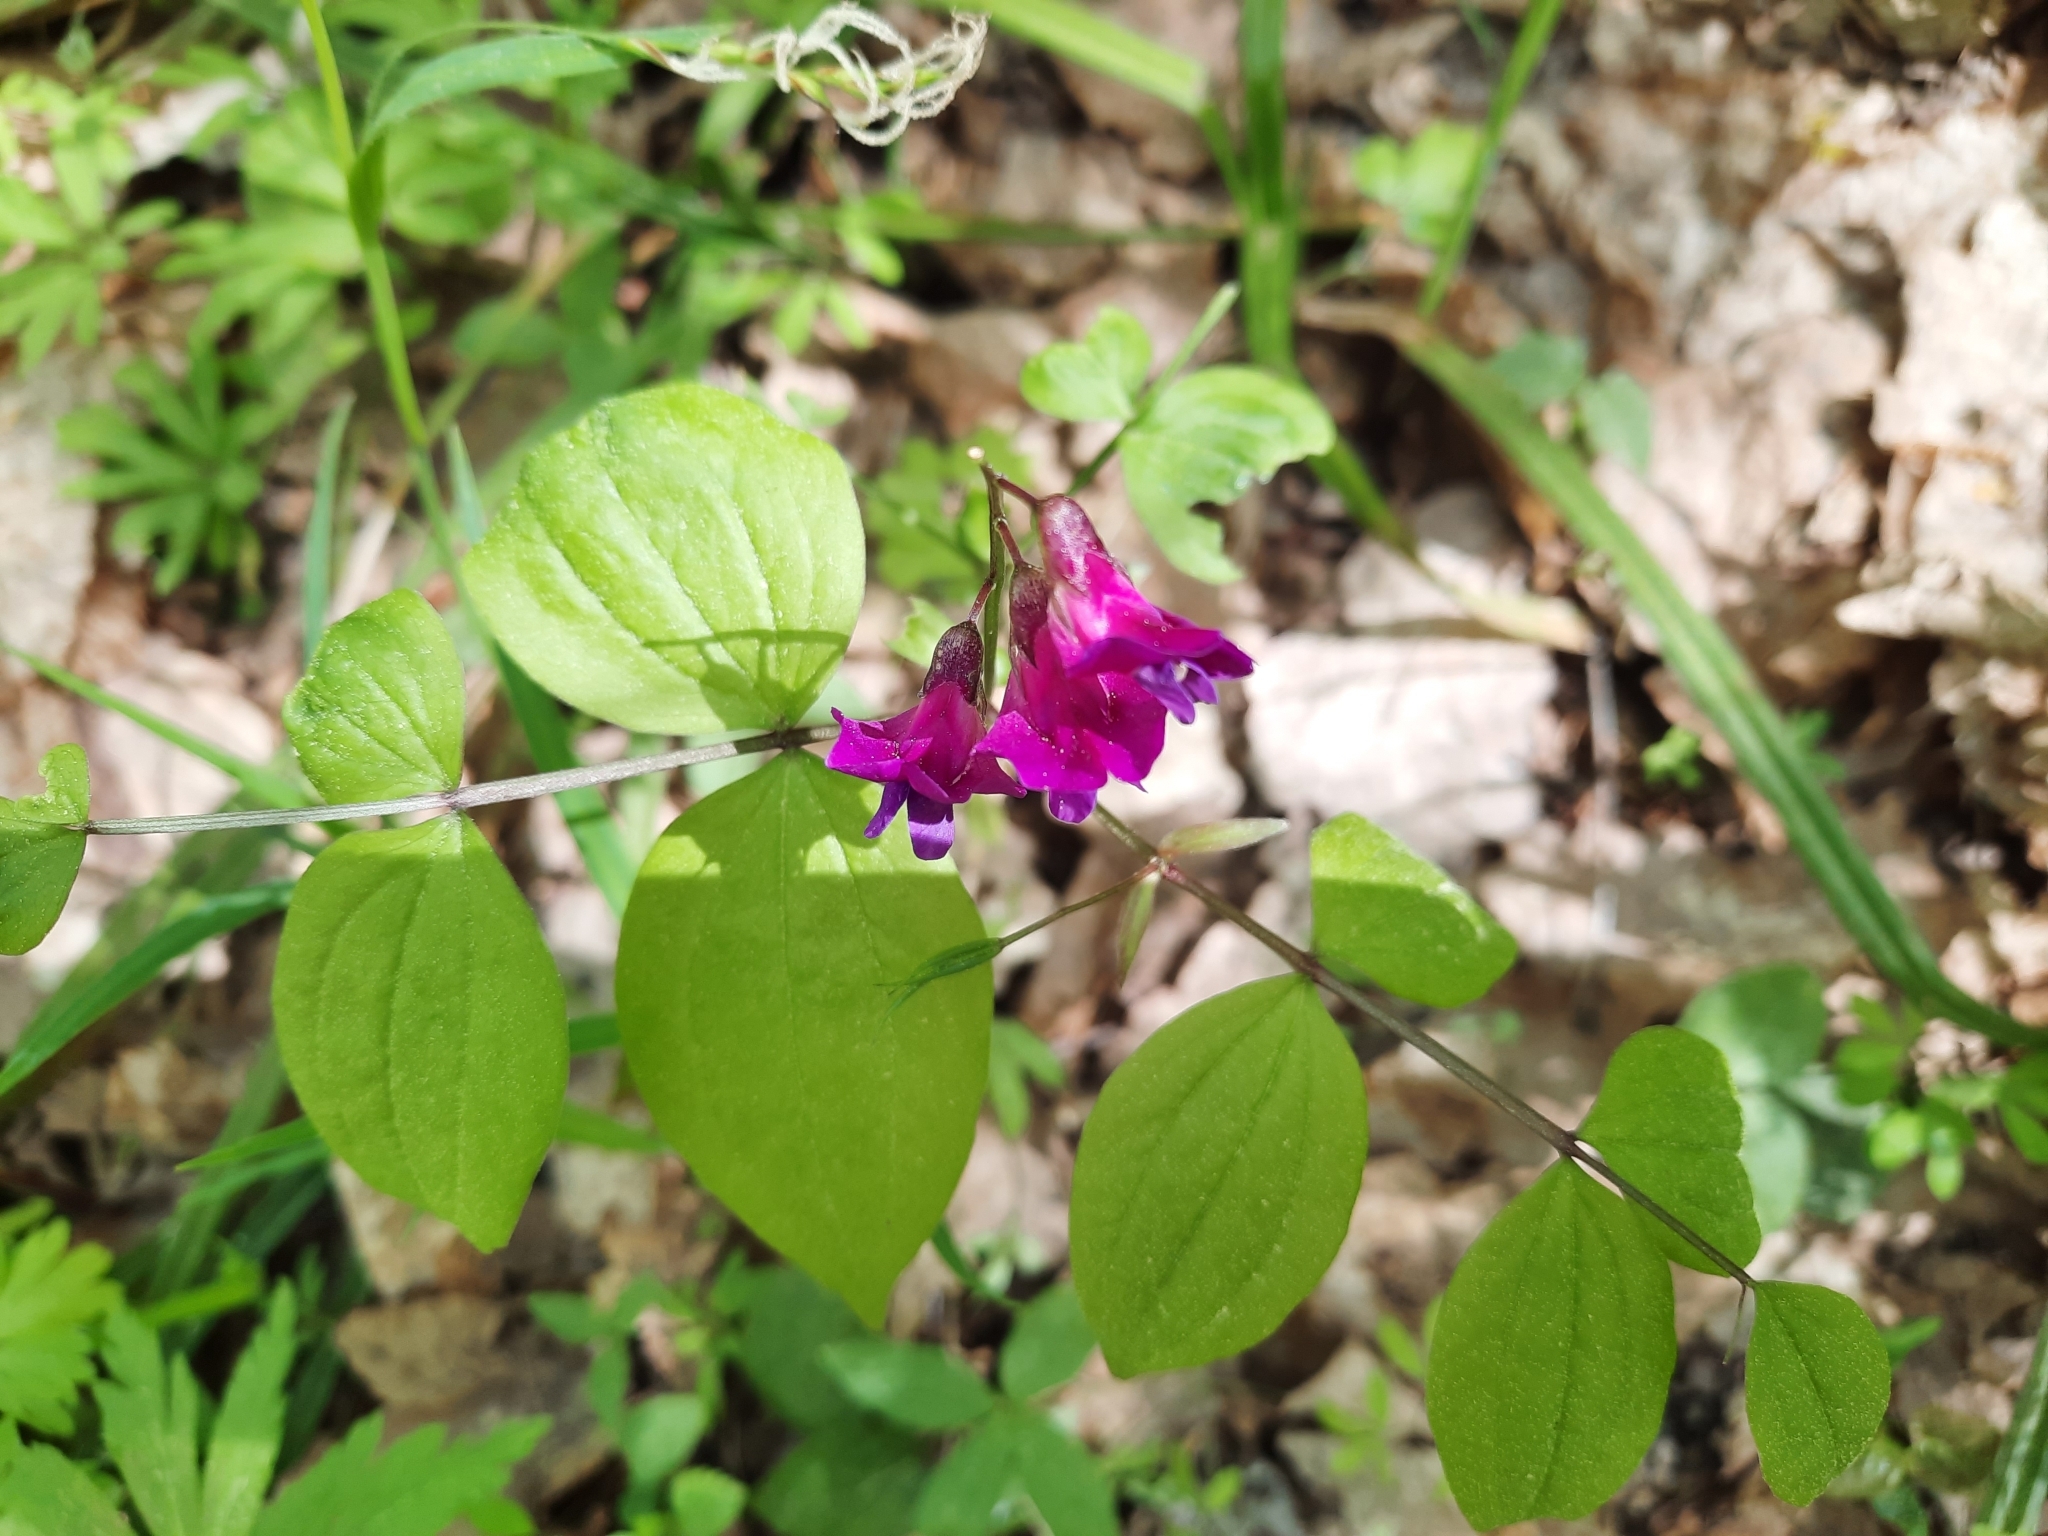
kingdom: Plantae
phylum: Tracheophyta
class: Magnoliopsida
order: Fabales
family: Fabaceae
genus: Lathyrus
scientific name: Lathyrus vernus
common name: Spring pea
